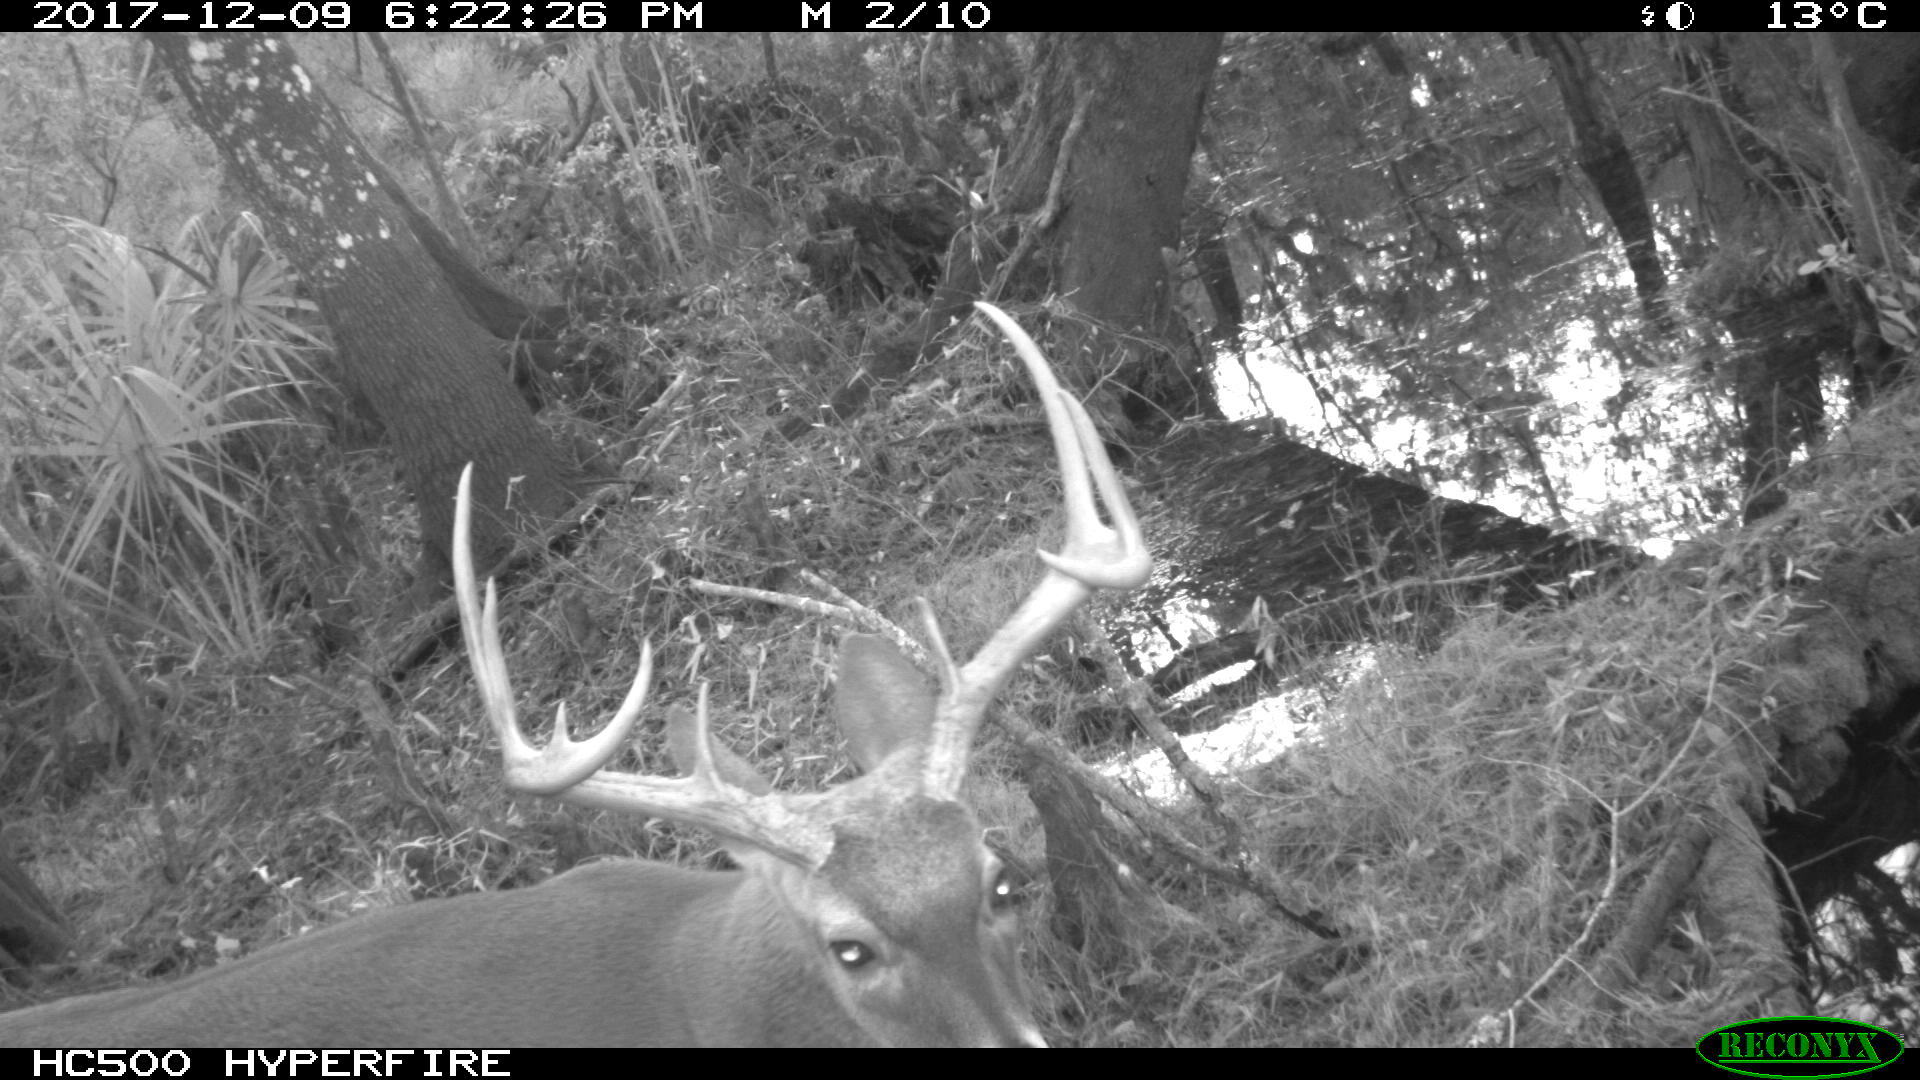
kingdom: Animalia
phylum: Chordata
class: Mammalia
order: Artiodactyla
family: Cervidae
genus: Odocoileus
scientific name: Odocoileus virginianus
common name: White-tailed deer
